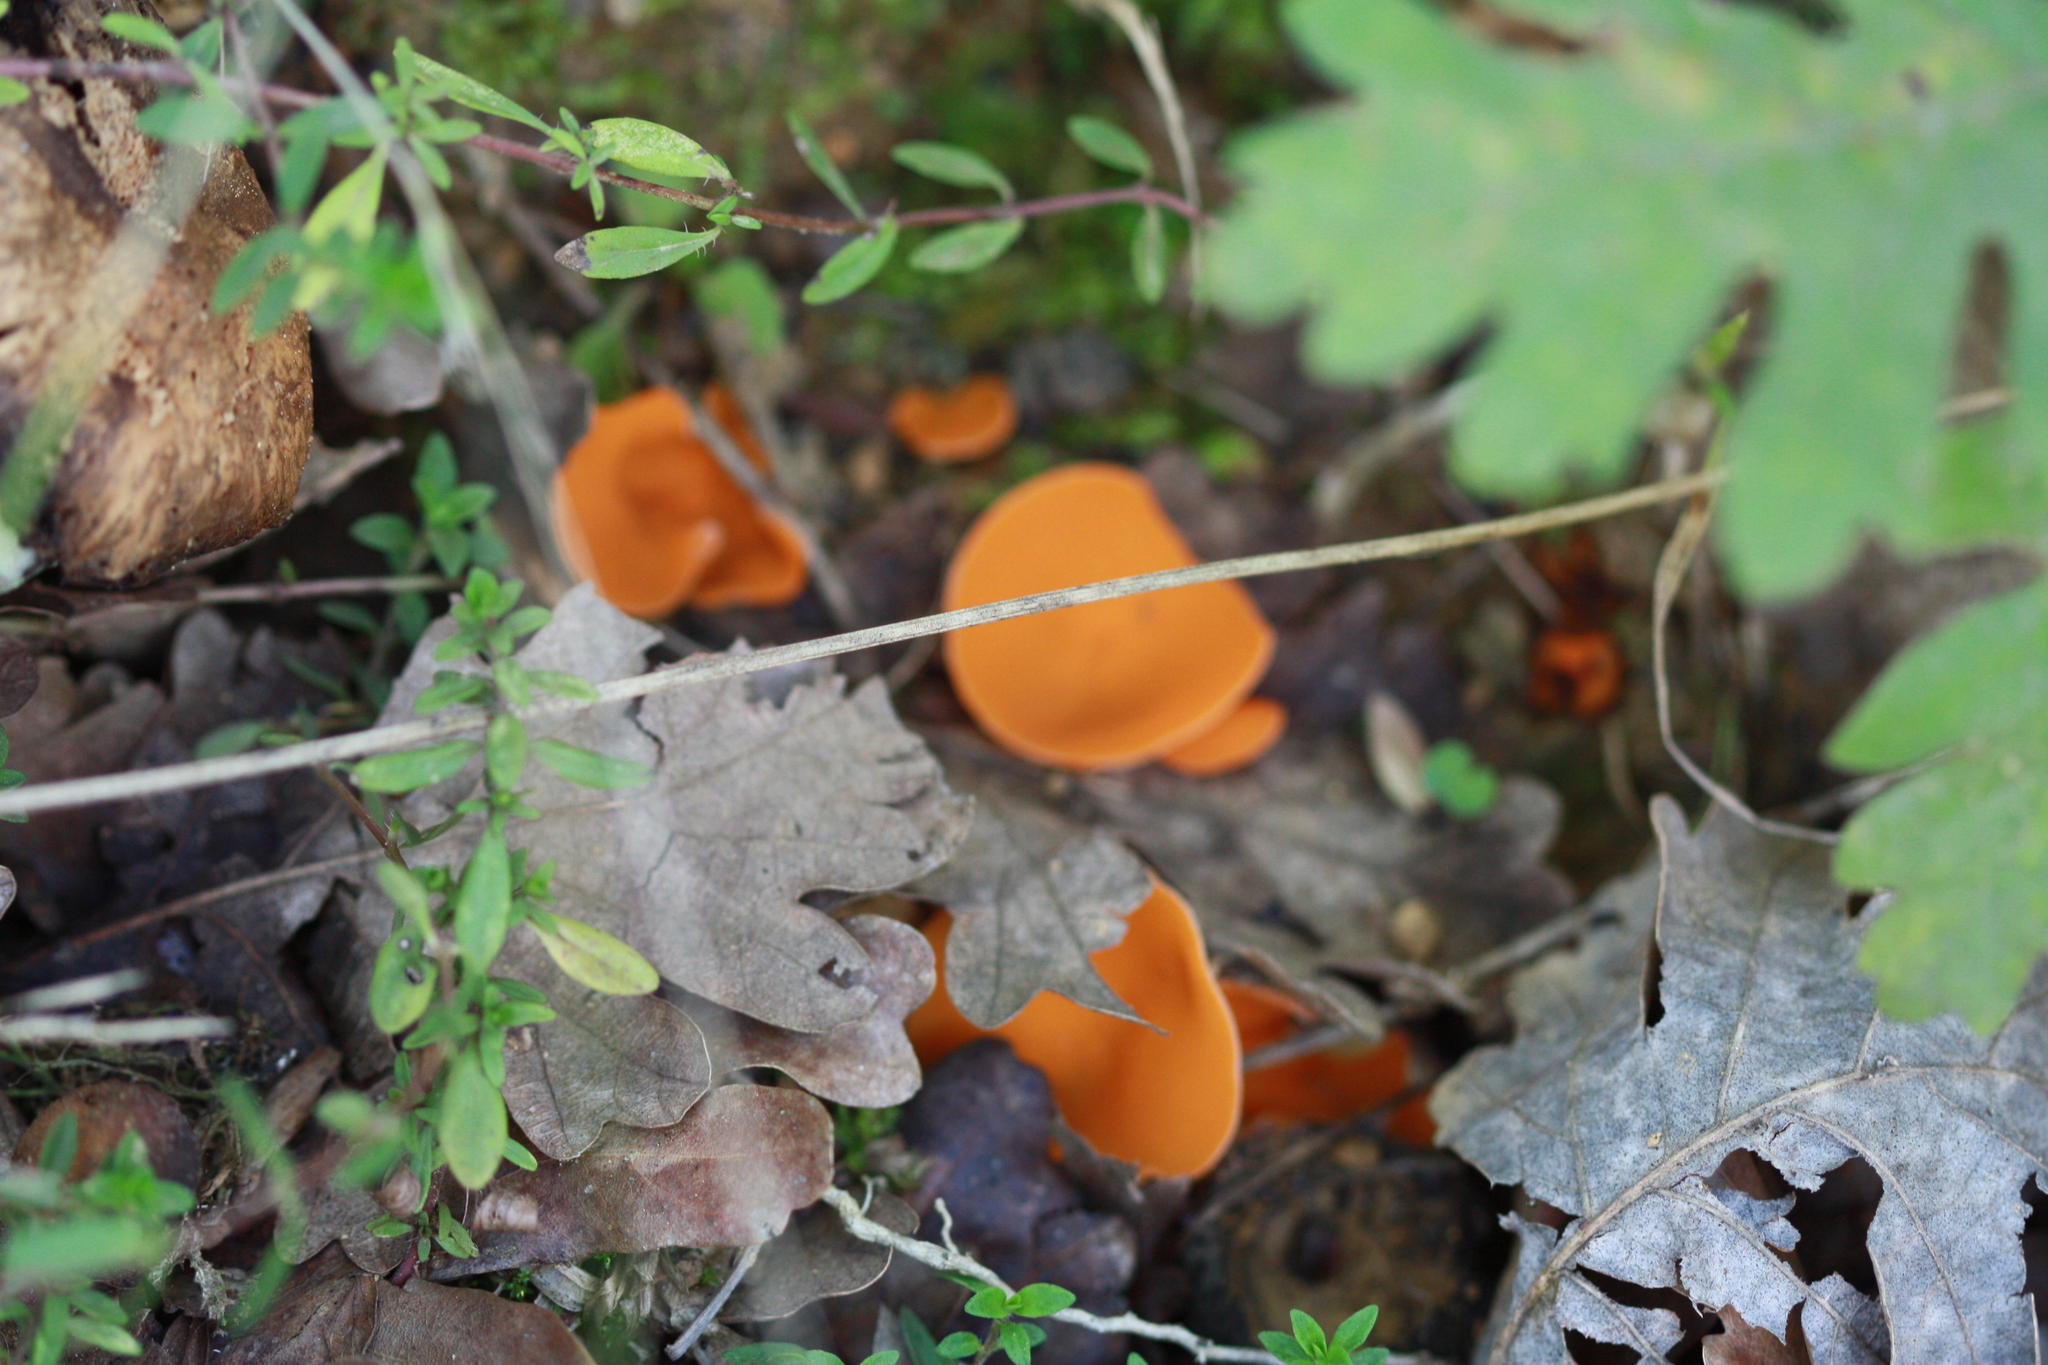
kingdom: Fungi
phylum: Ascomycota
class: Pezizomycetes
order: Pezizales
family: Pyronemataceae
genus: Aleuria
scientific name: Aleuria aurantia
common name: Orange peel fungus
